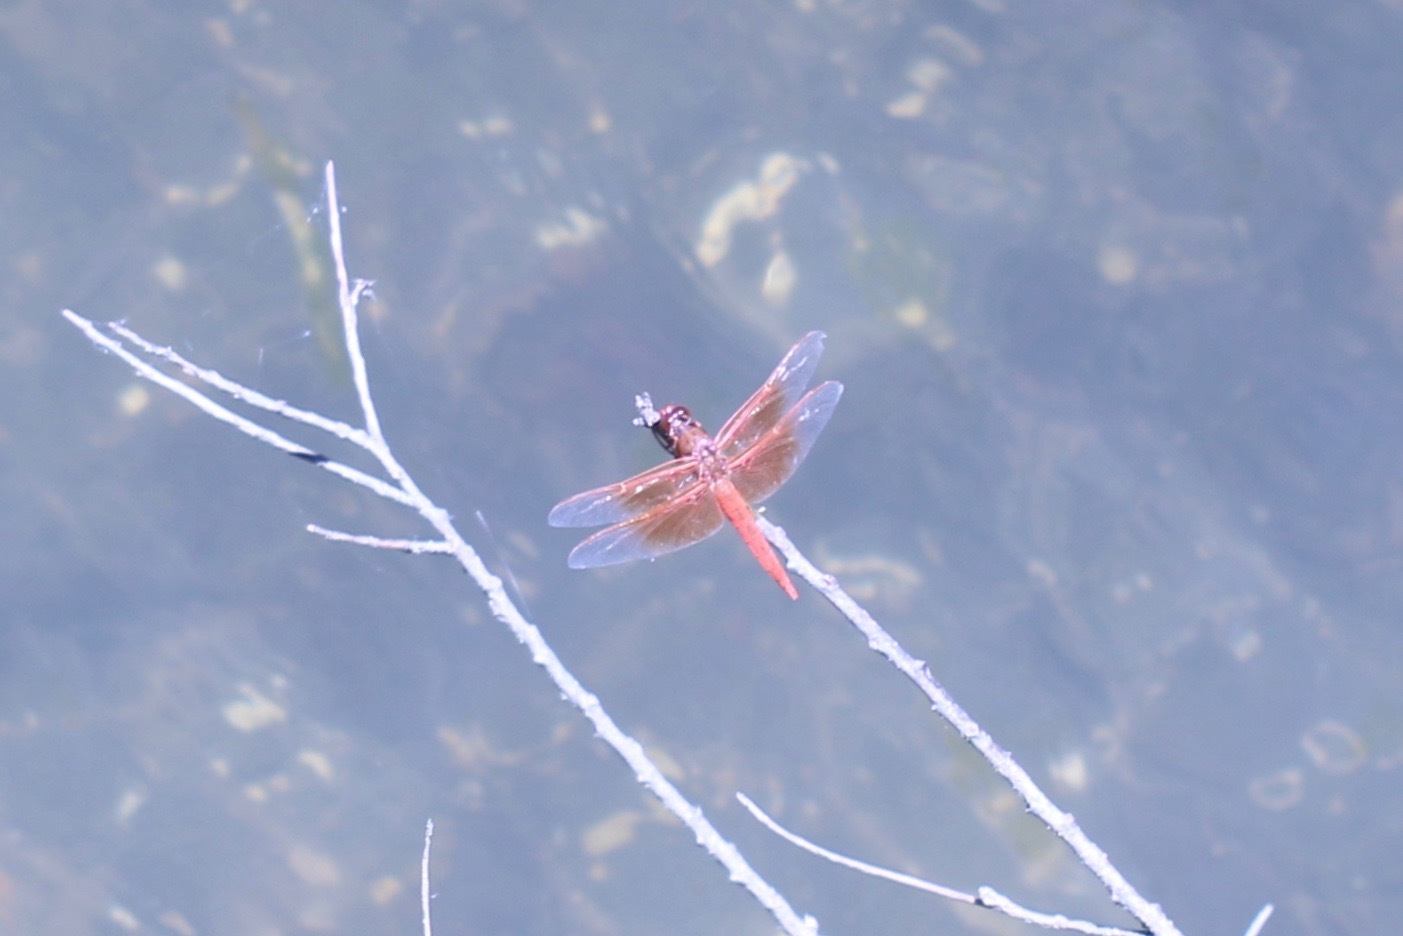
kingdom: Animalia
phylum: Arthropoda
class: Insecta
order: Odonata
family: Libellulidae
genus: Libellula
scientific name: Libellula saturata
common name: Flame skimmer
